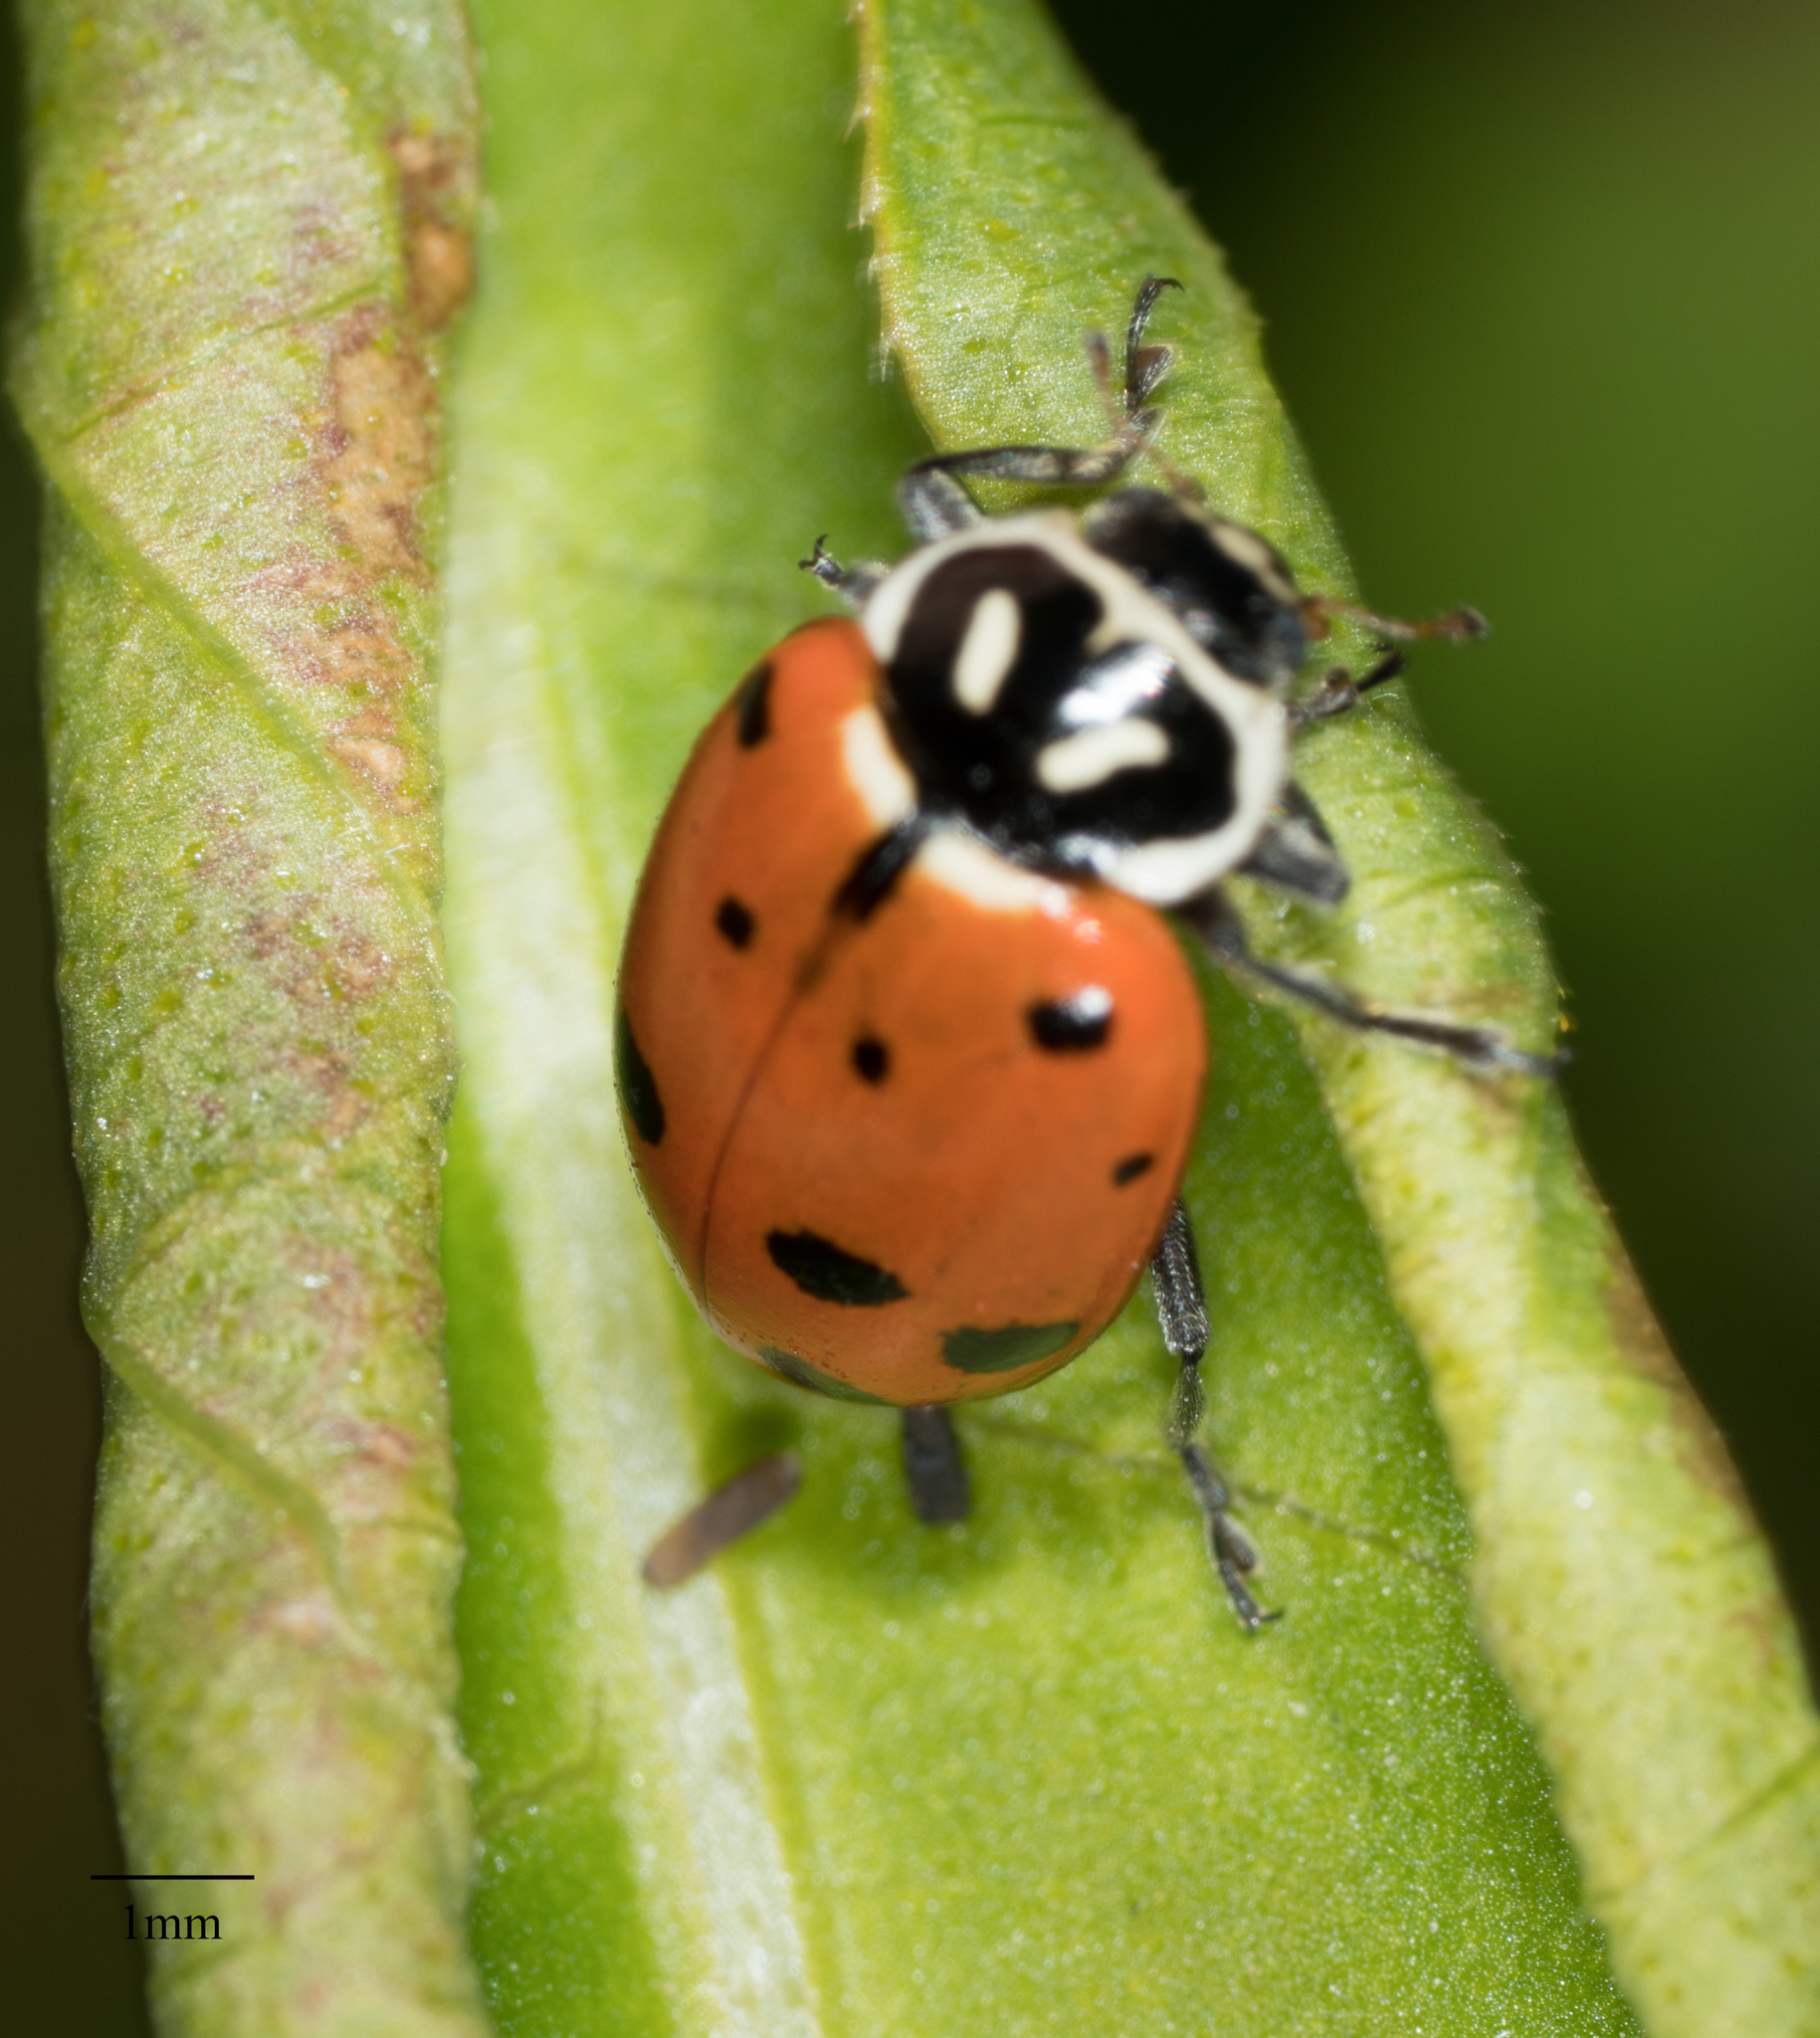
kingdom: Animalia
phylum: Arthropoda
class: Insecta
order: Coleoptera
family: Coccinellidae
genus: Hippodamia
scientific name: Hippodamia convergens
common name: Convergent lady beetle
